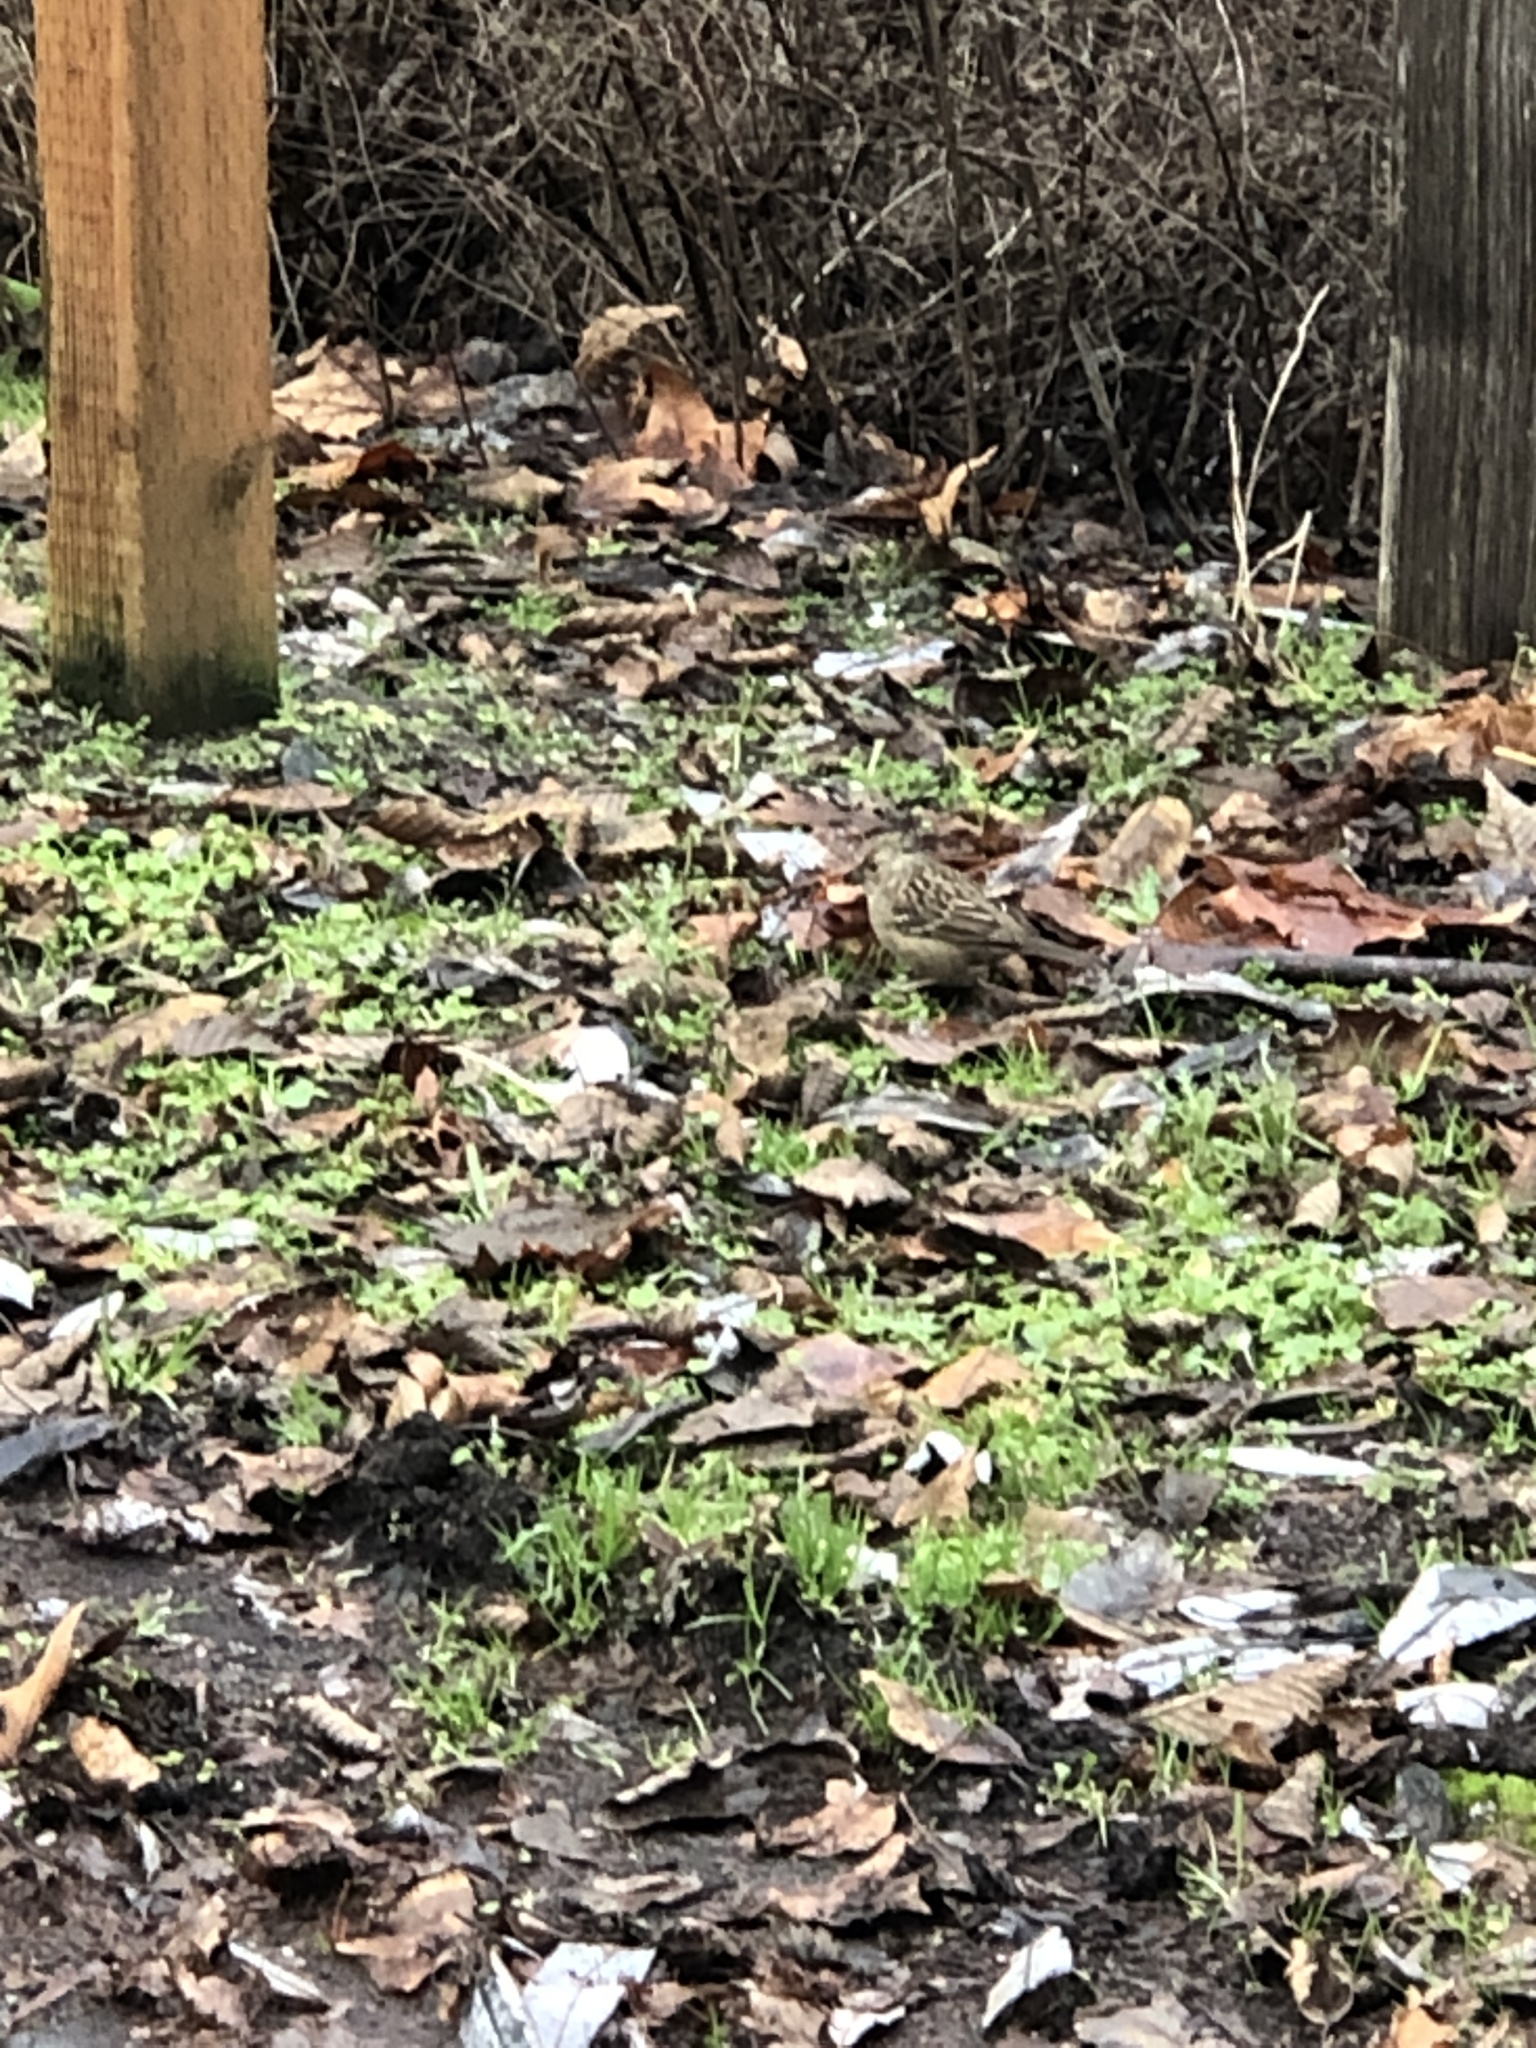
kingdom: Animalia
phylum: Chordata
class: Aves
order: Passeriformes
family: Passerellidae
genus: Zonotrichia
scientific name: Zonotrichia atricapilla
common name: Golden-crowned sparrow
